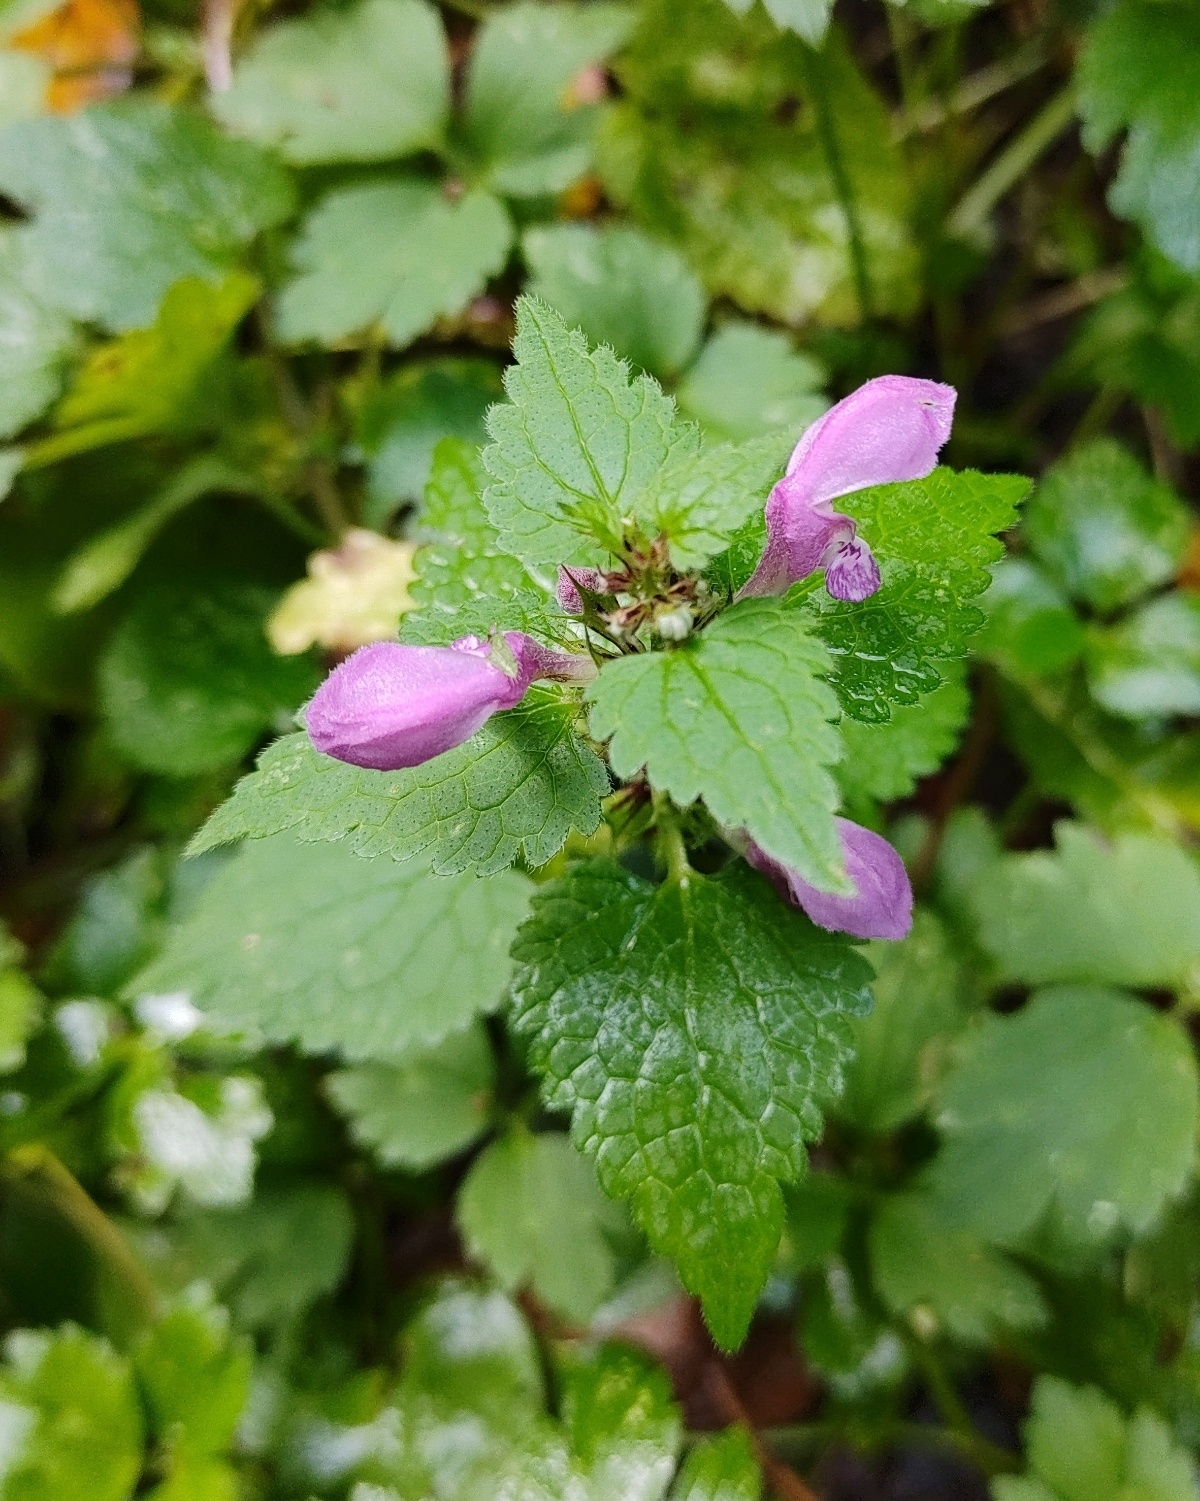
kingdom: Plantae
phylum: Tracheophyta
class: Magnoliopsida
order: Lamiales
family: Lamiaceae
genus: Lamium
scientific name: Lamium maculatum
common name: Spotted dead-nettle
